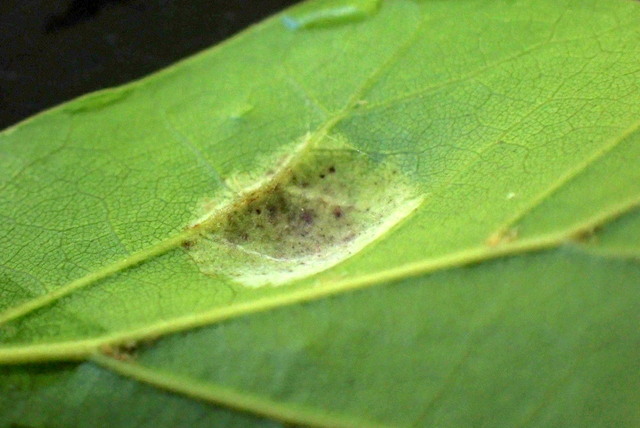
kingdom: Fungi
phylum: Ascomycota
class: Taphrinomycetes
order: Taphrinales
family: Taphrinaceae
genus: Taphrina
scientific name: Taphrina caerulescens
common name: Oak leaf blister
